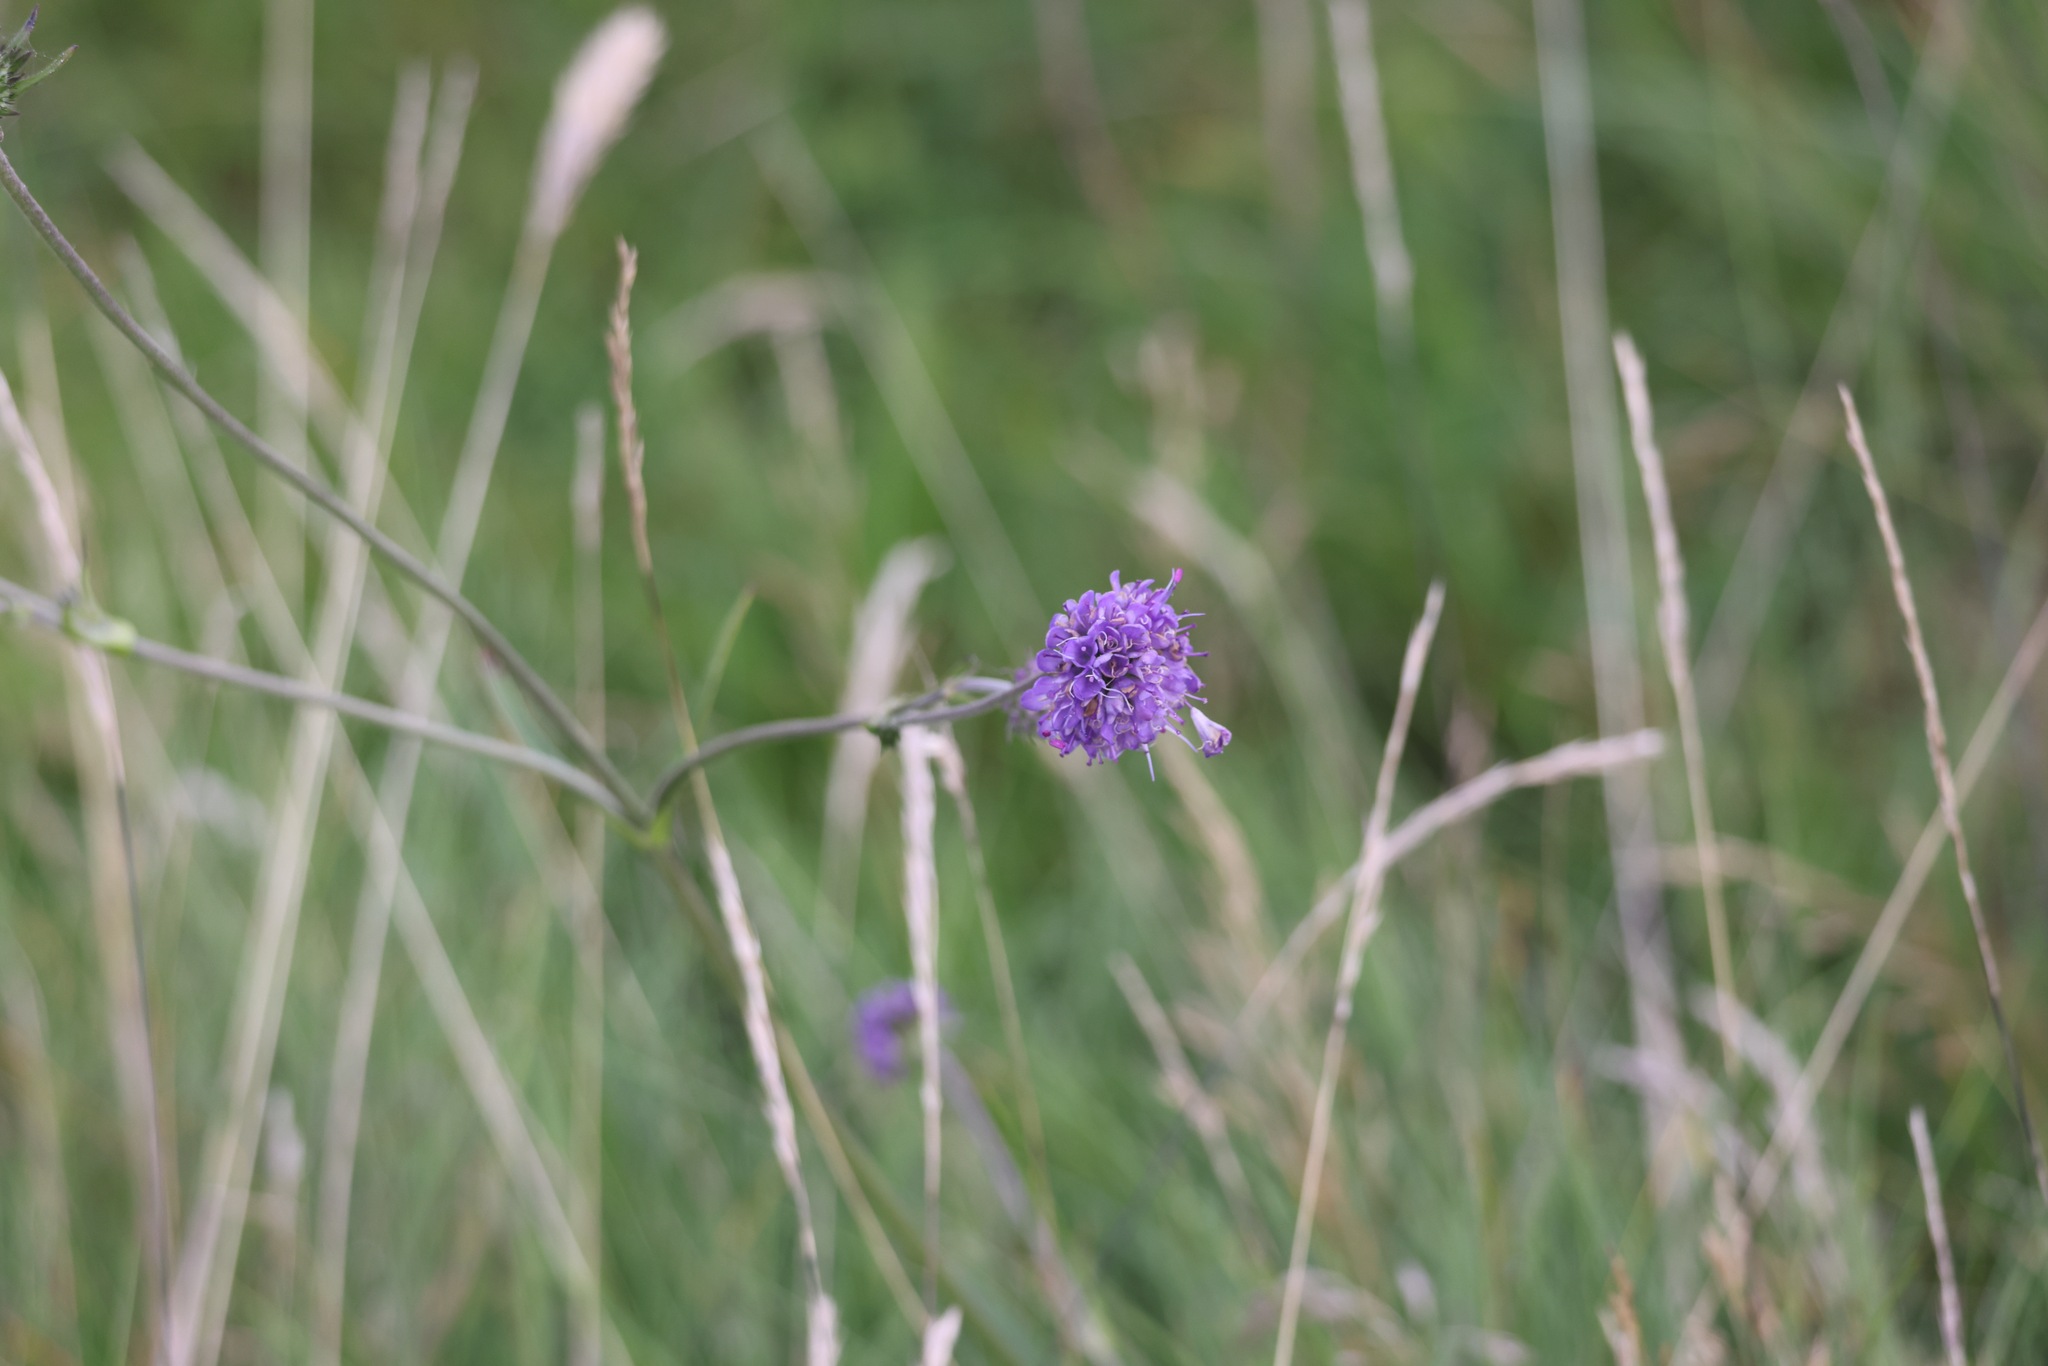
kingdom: Plantae
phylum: Tracheophyta
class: Magnoliopsida
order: Dipsacales
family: Caprifoliaceae
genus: Succisa
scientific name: Succisa pratensis
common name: Devil's-bit
